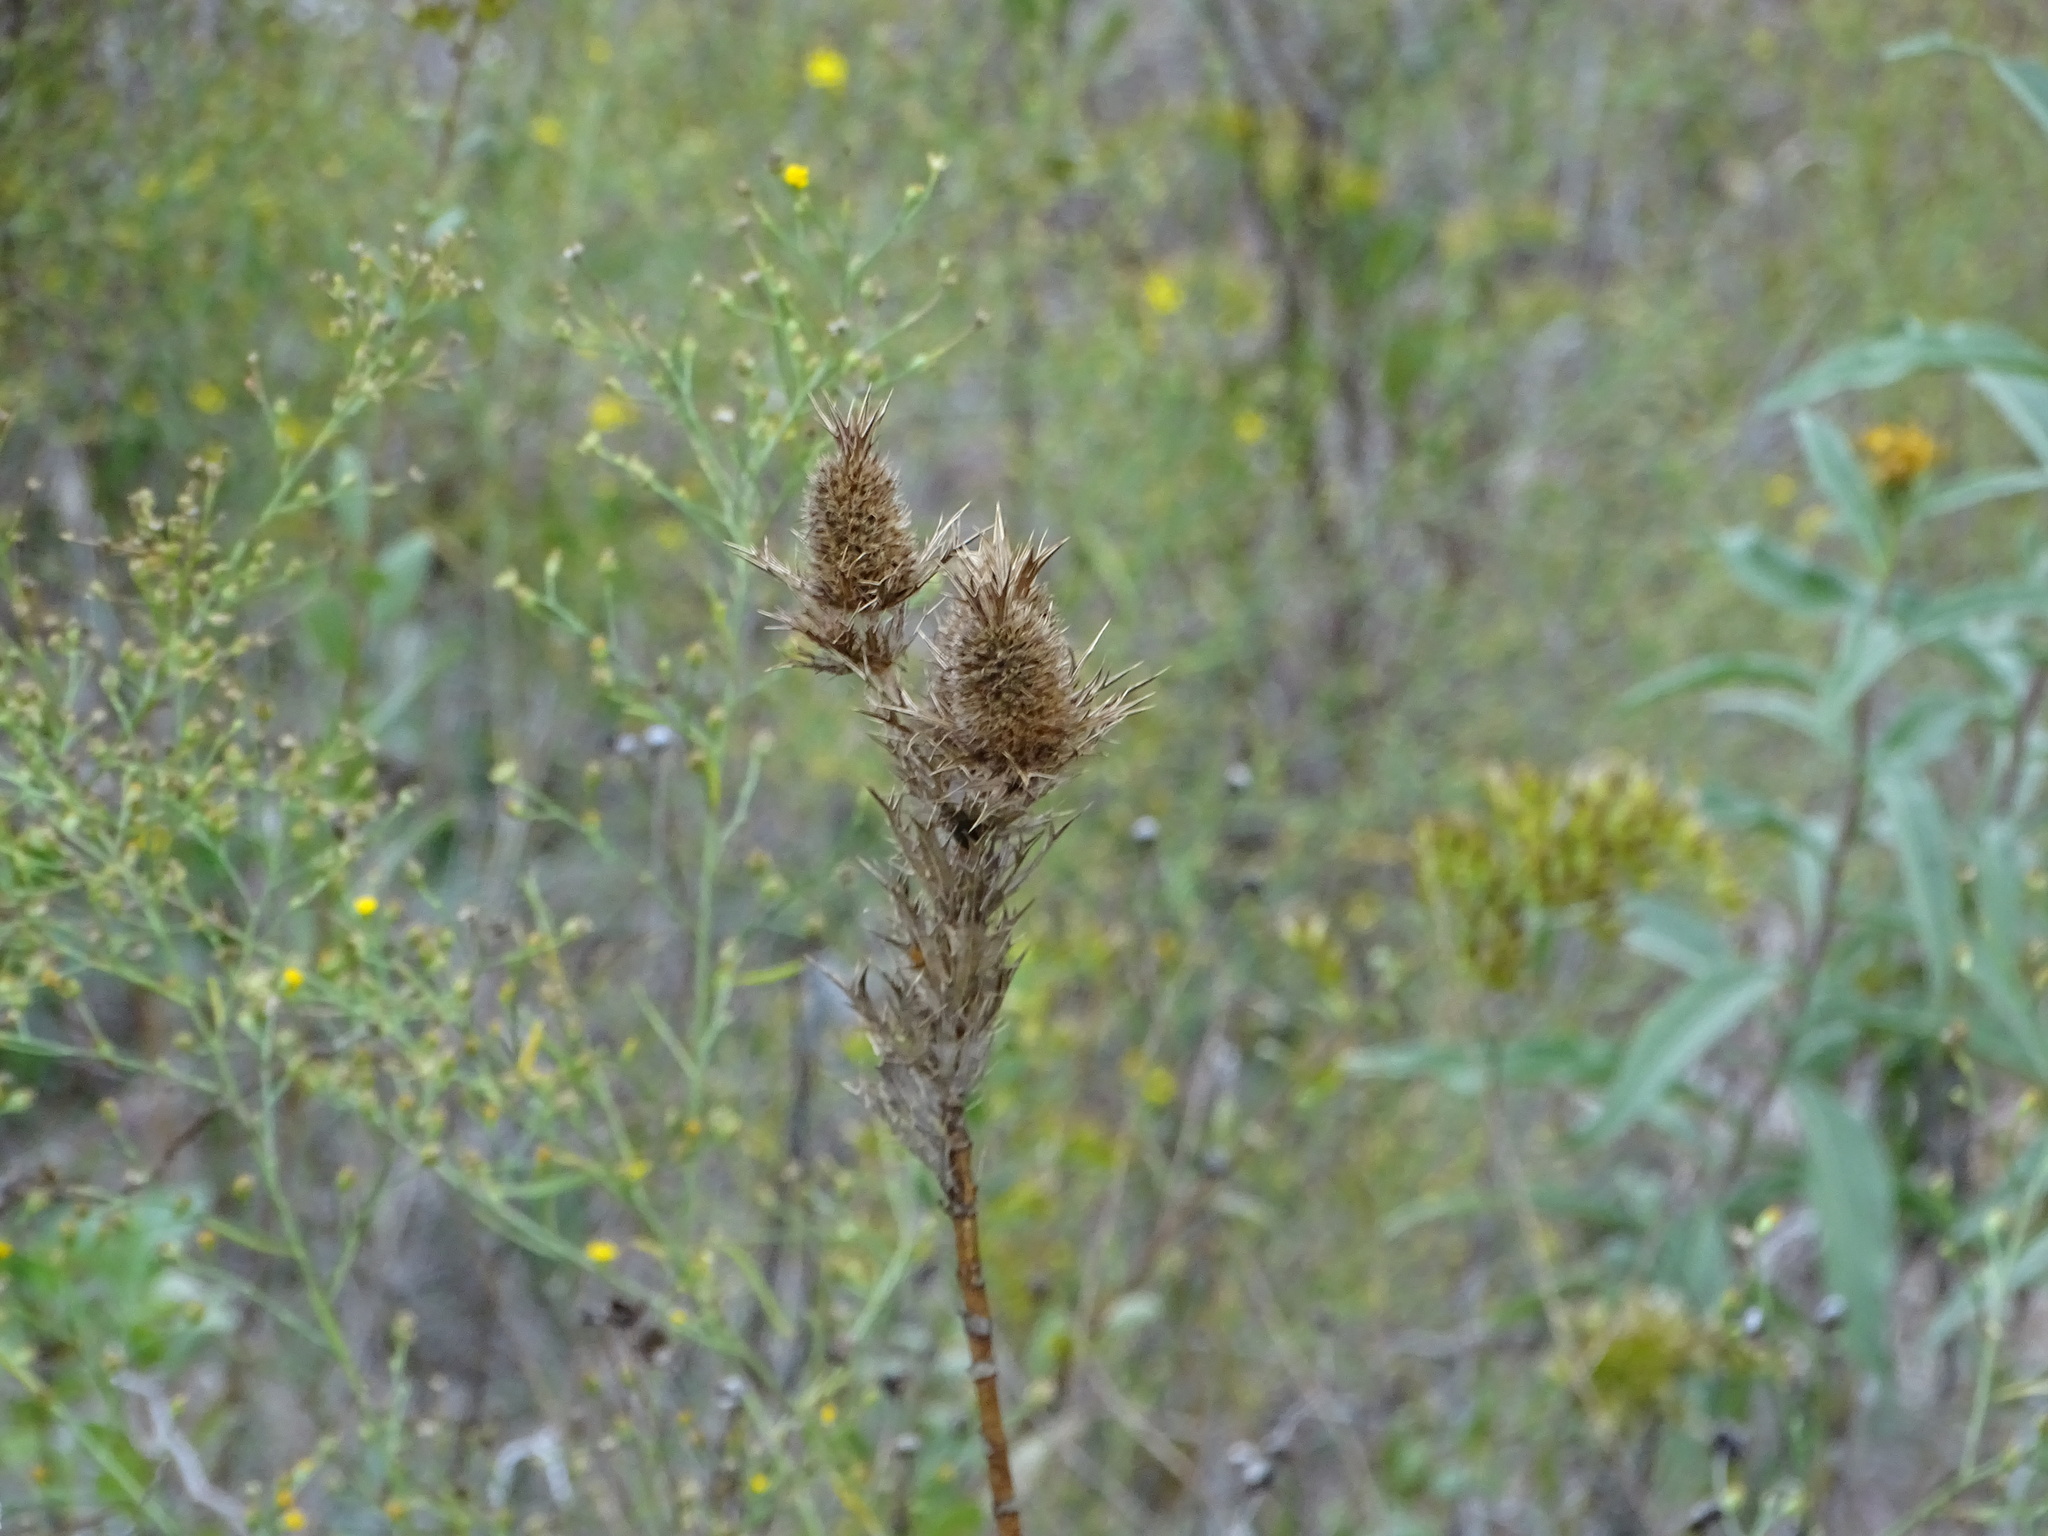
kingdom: Plantae
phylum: Tracheophyta
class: Magnoliopsida
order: Apiales
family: Apiaceae
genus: Eryngium
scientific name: Eryngium leavenworthii
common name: Leavenworth's eryngo
